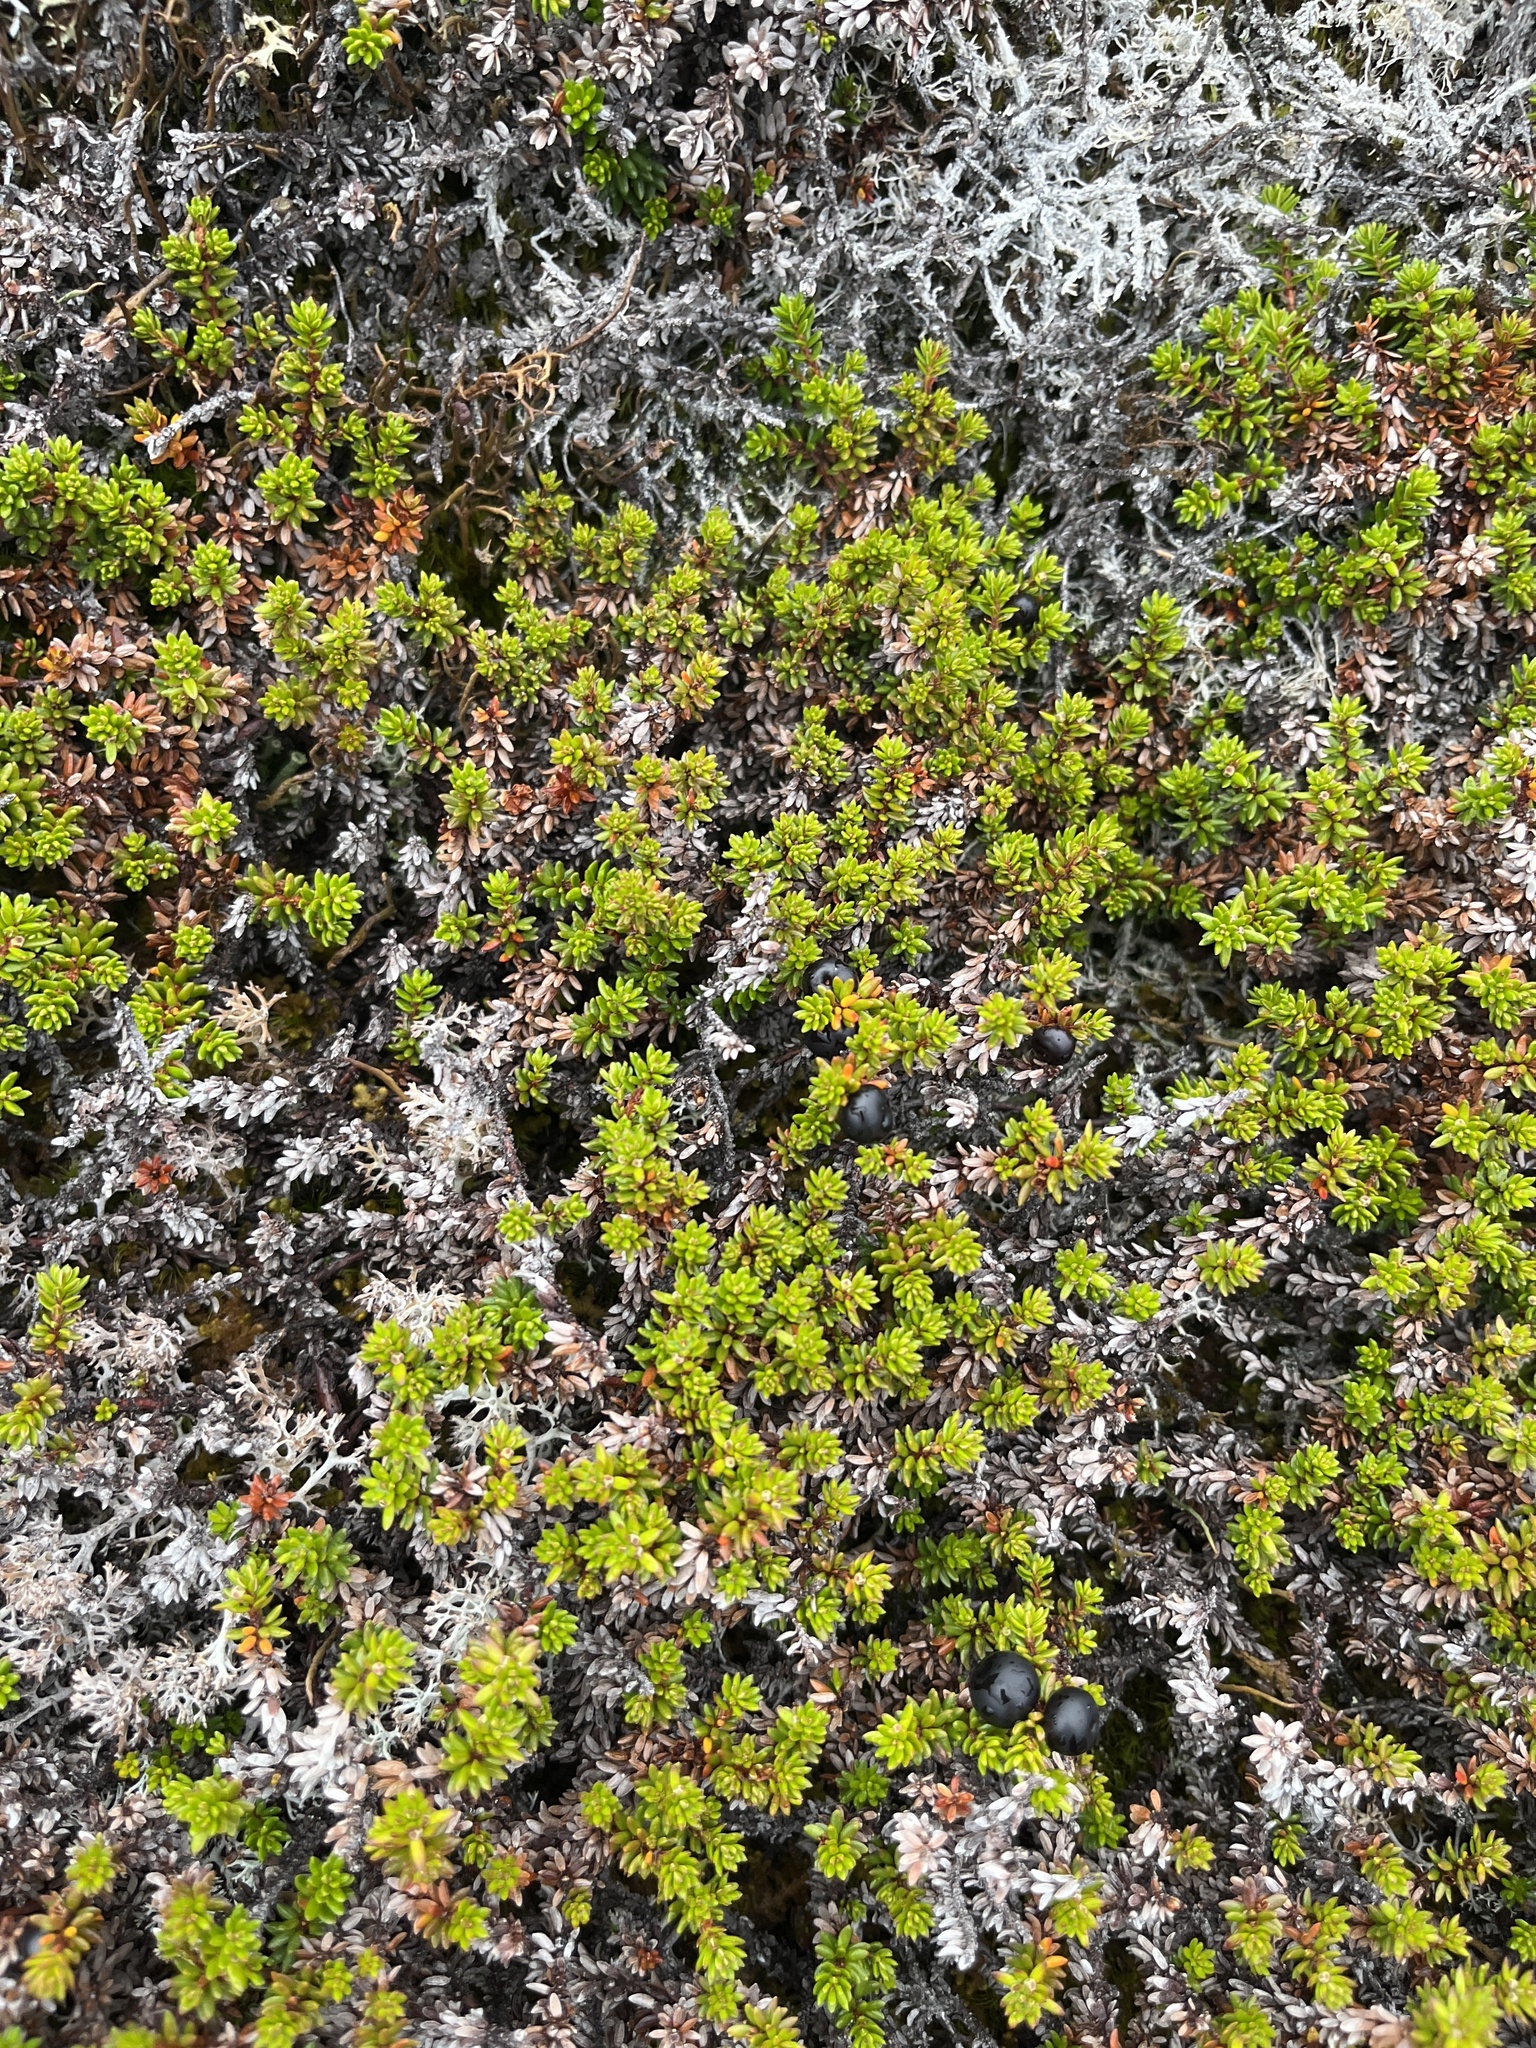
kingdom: Plantae
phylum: Tracheophyta
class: Magnoliopsida
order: Ericales
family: Ericaceae
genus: Empetrum
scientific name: Empetrum hermaphroditum
